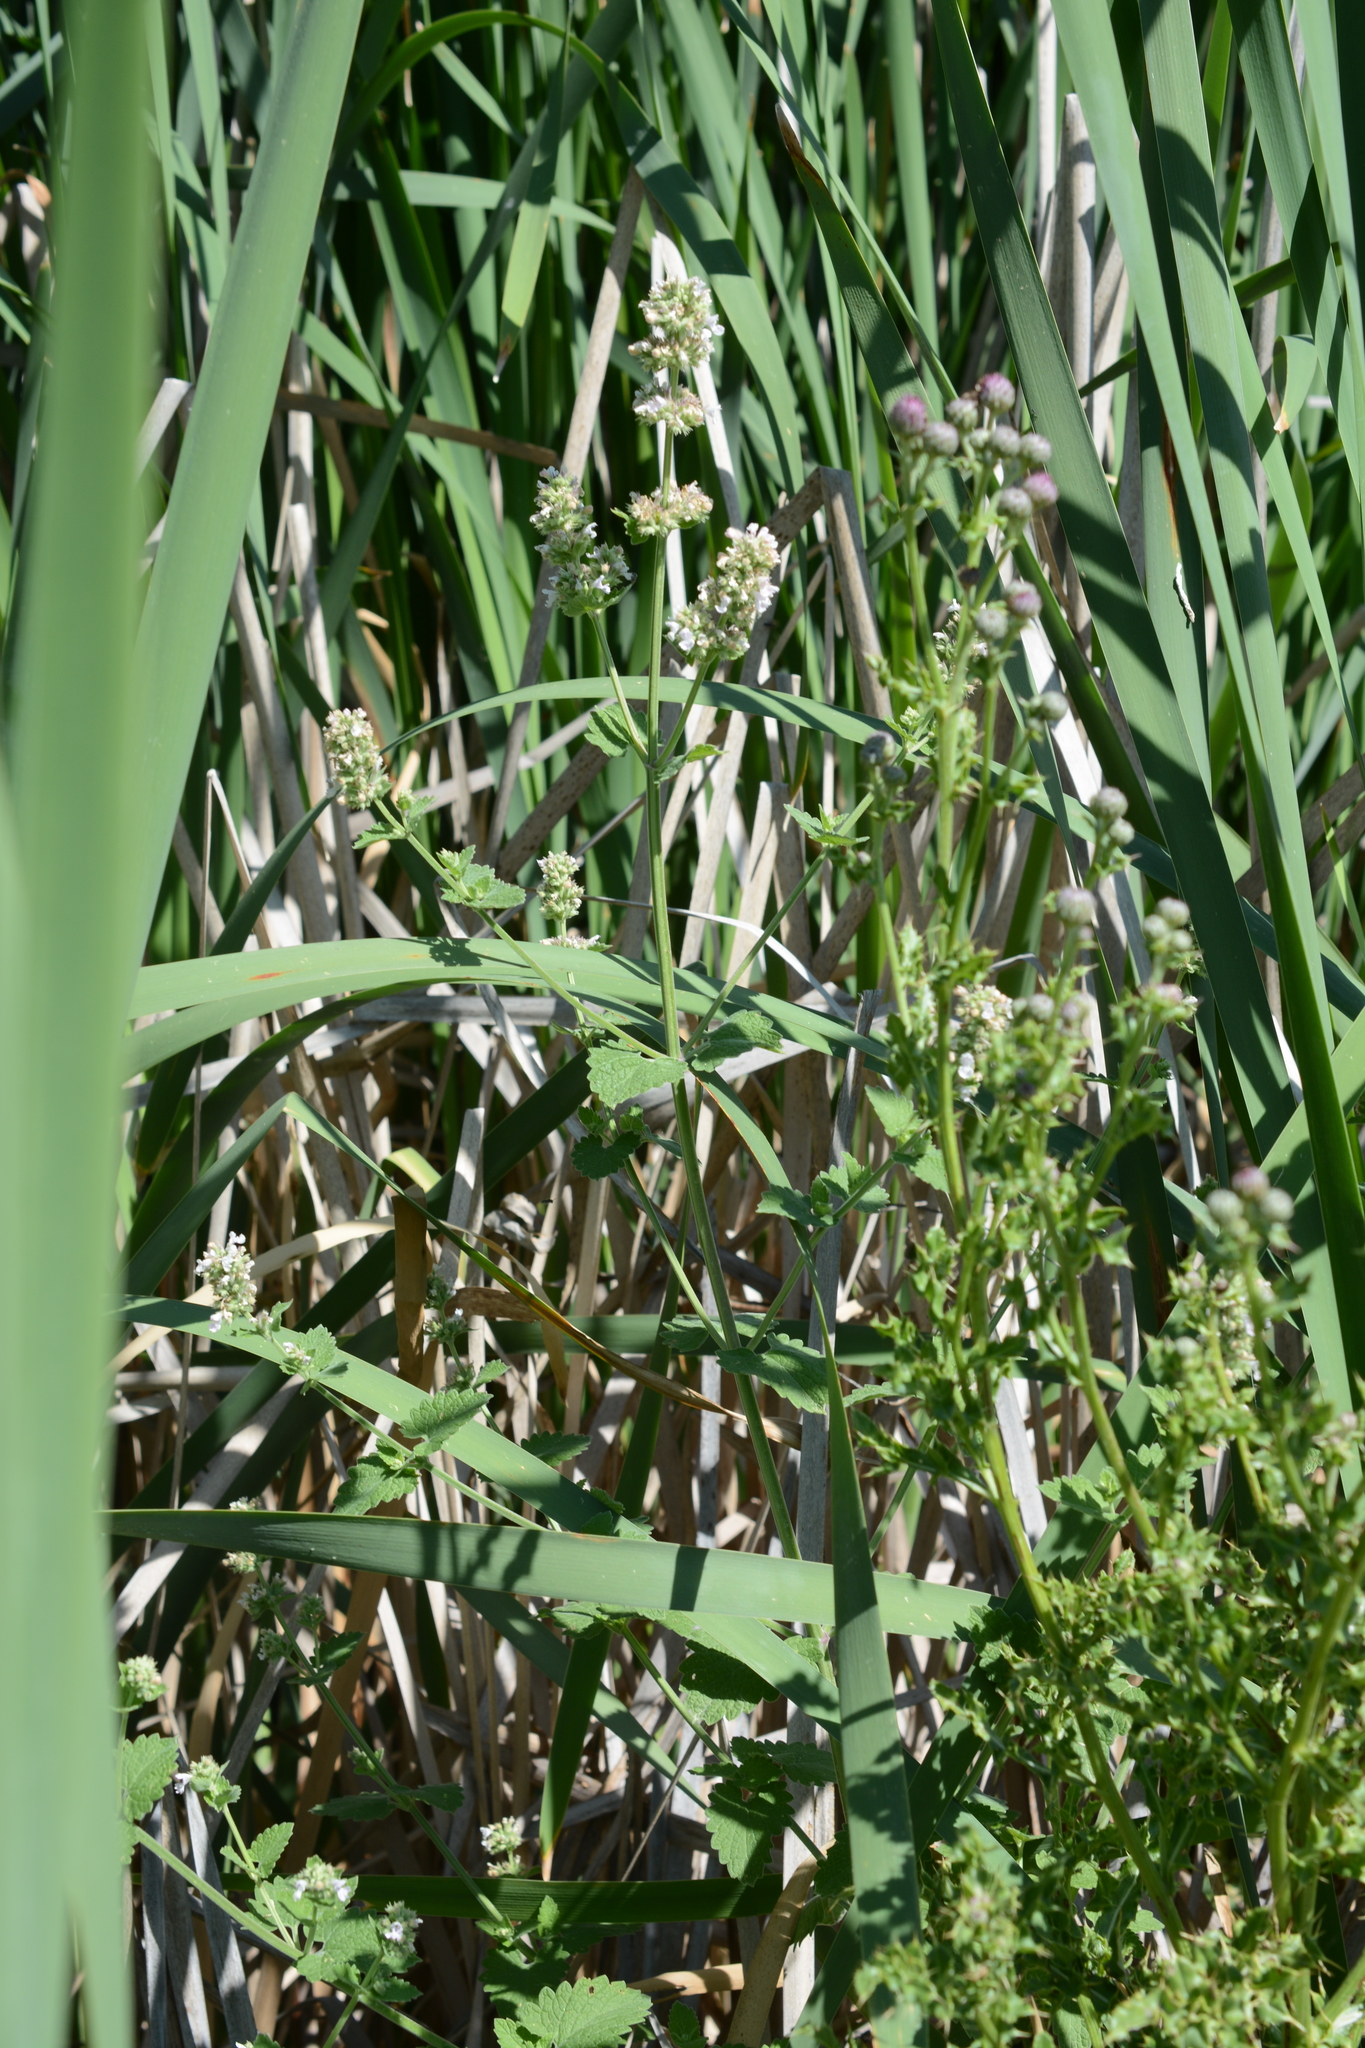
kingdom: Plantae
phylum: Tracheophyta
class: Magnoliopsida
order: Lamiales
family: Lamiaceae
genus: Nepeta
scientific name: Nepeta cataria
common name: Catnip
